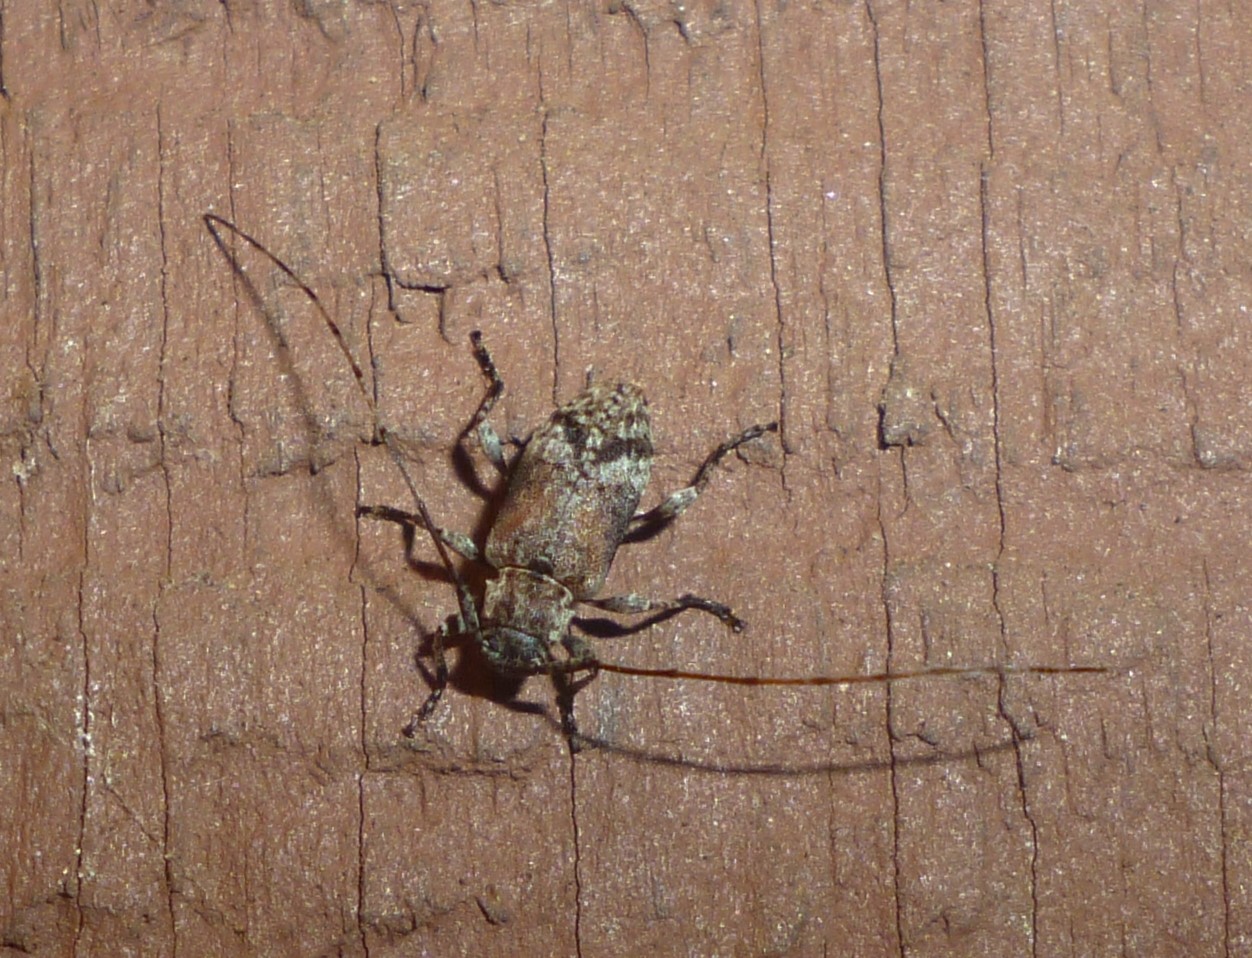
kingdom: Animalia
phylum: Arthropoda
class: Insecta
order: Coleoptera
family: Cerambycidae
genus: Sternidius
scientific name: Sternidius alpha
